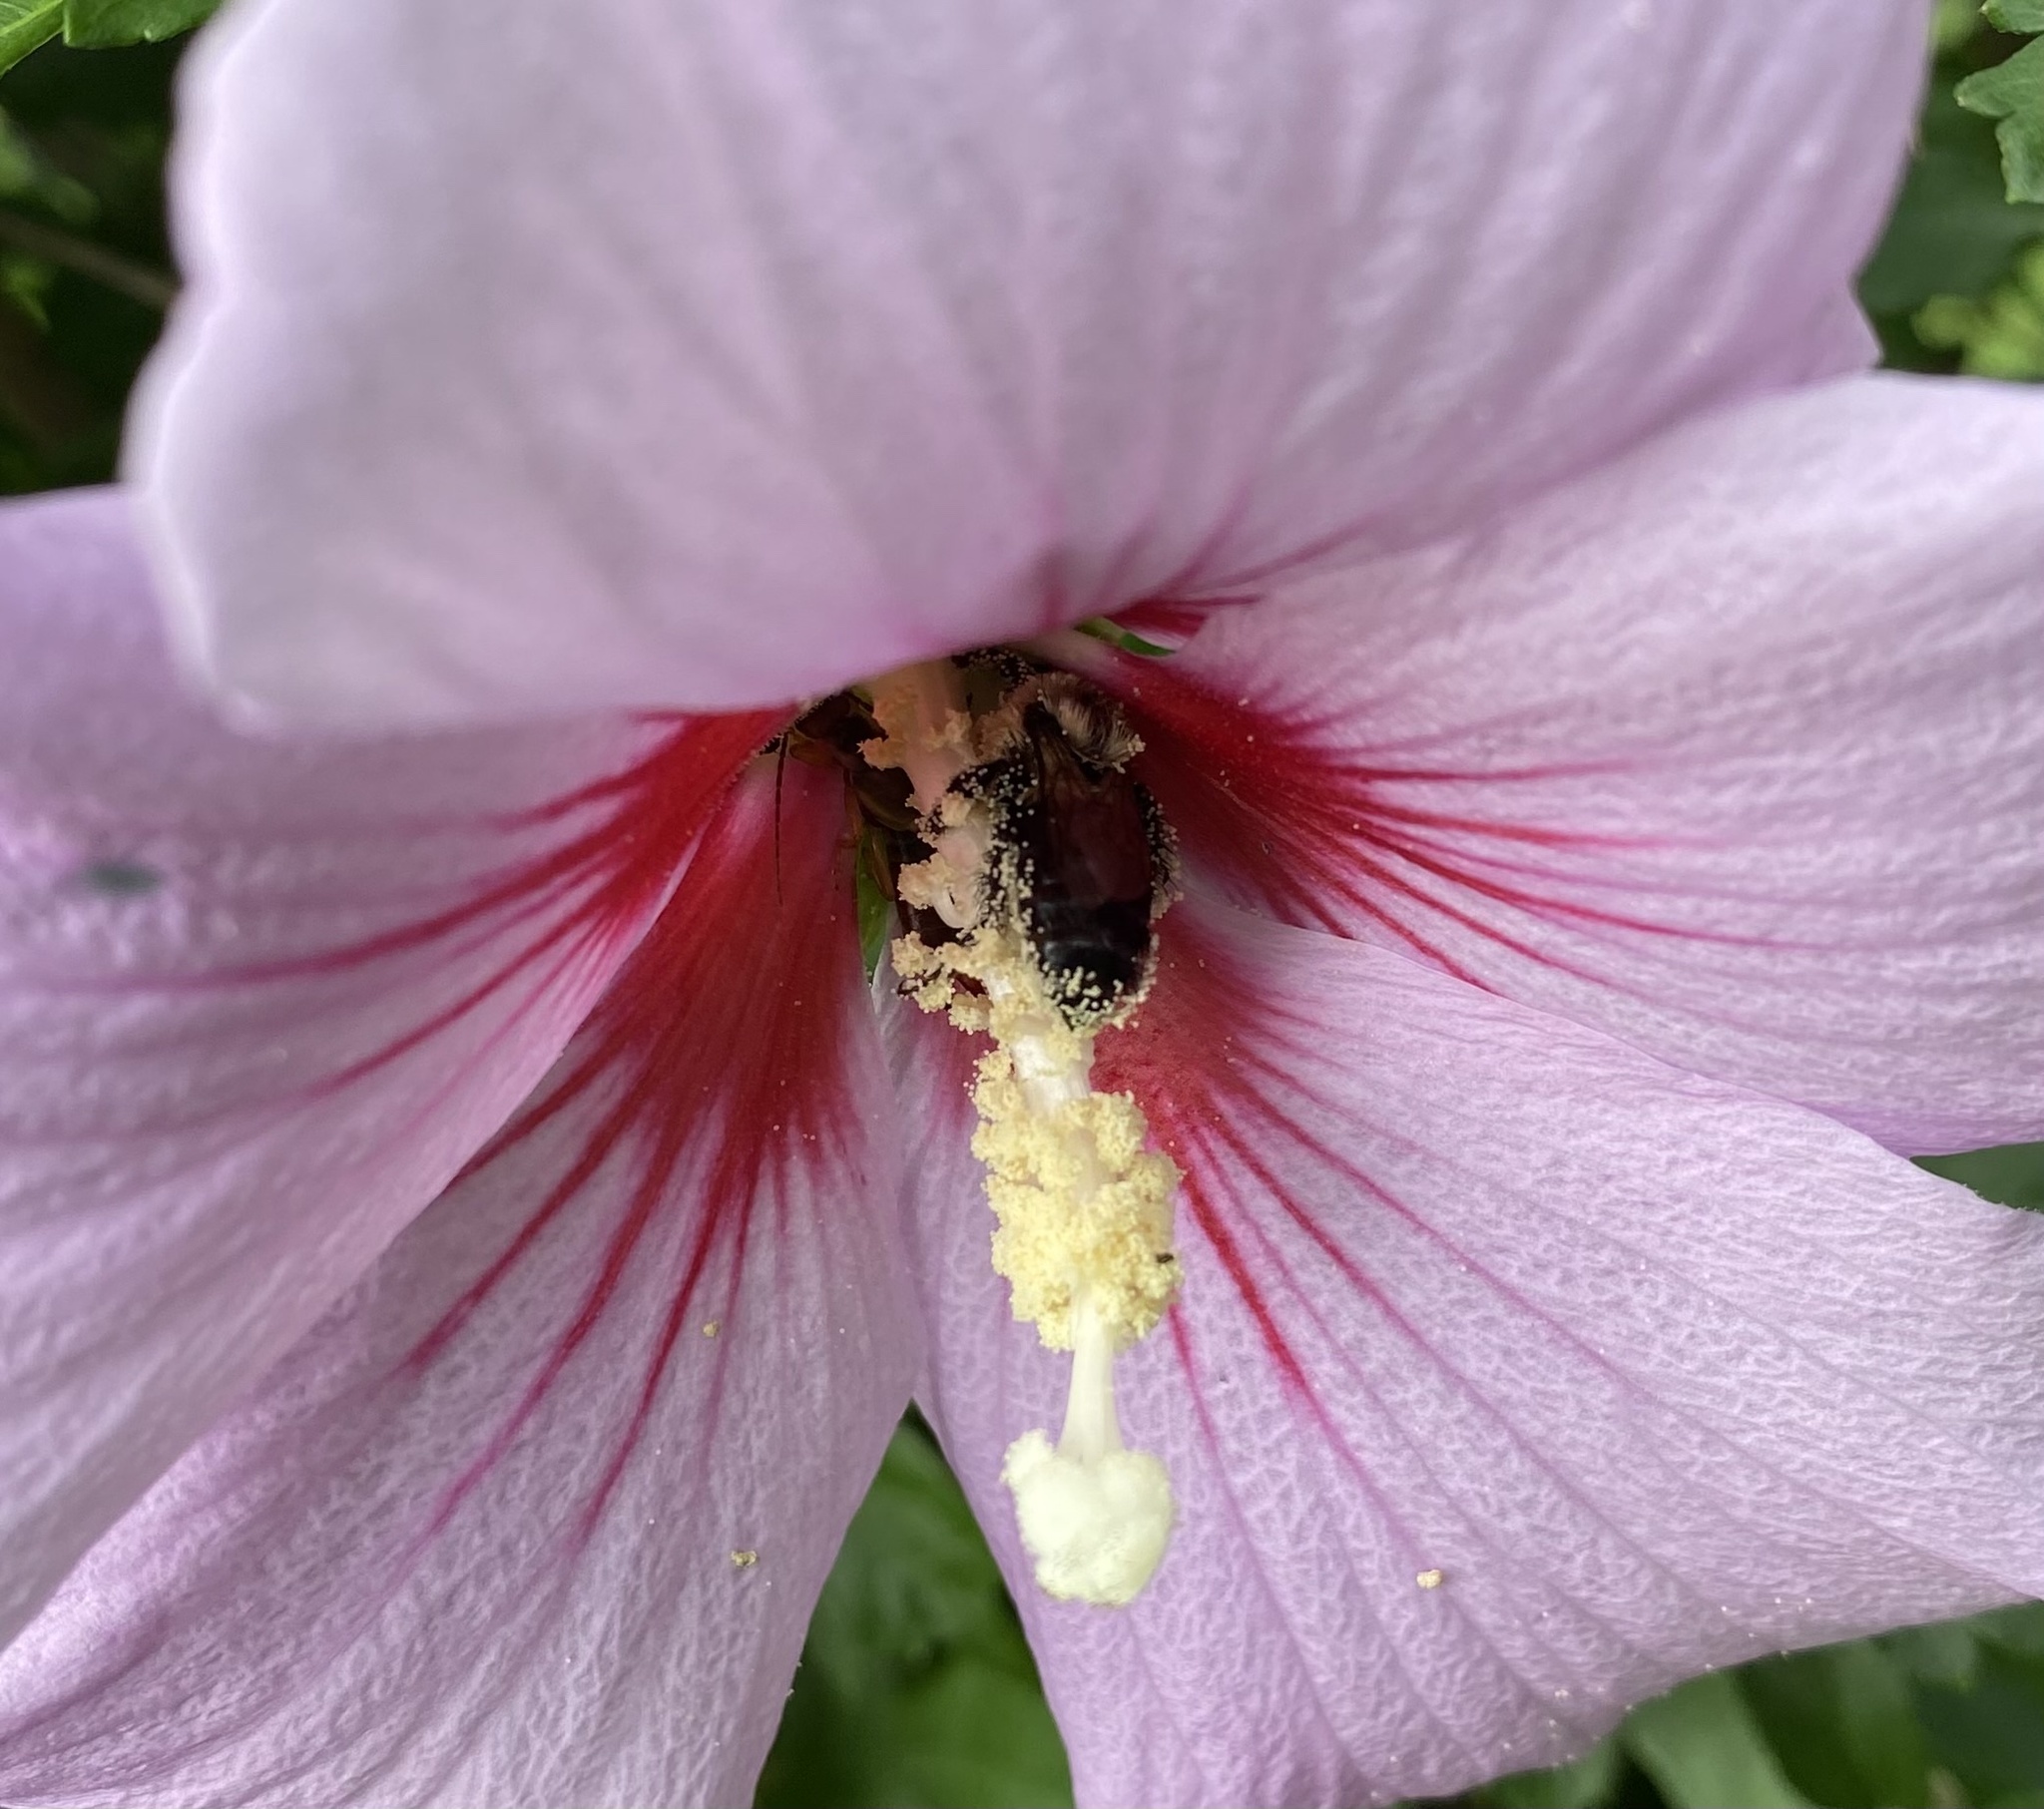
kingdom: Animalia
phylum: Arthropoda
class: Insecta
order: Hymenoptera
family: Apidae
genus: Bombus
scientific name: Bombus impatiens
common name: Common eastern bumble bee
